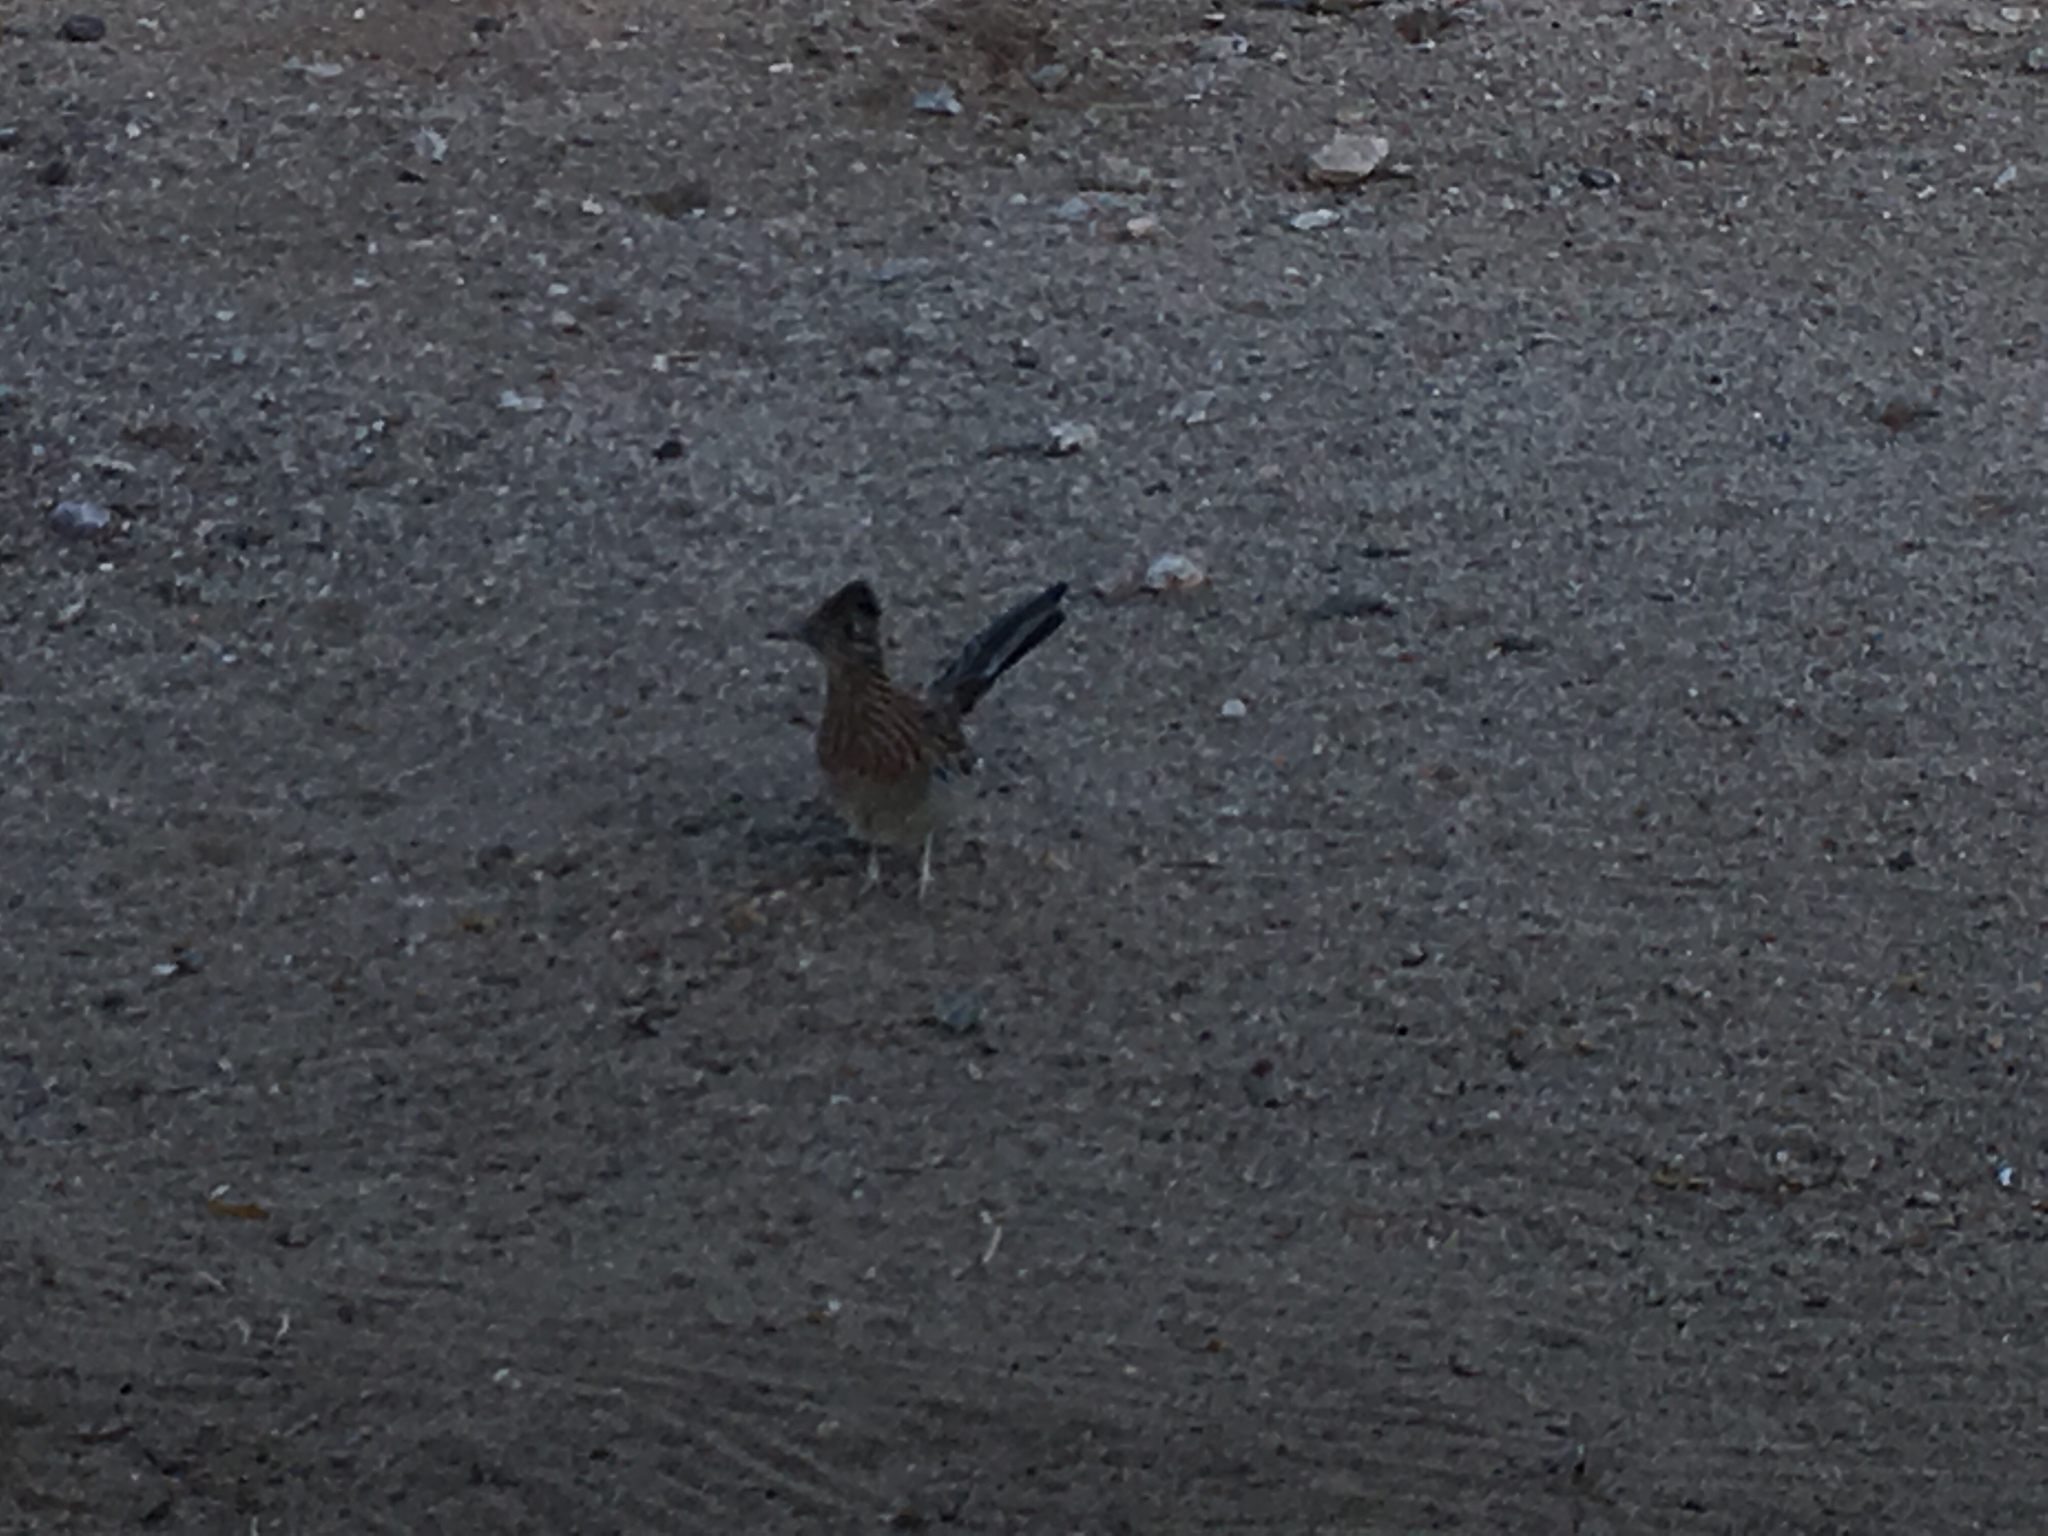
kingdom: Animalia
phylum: Chordata
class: Aves
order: Cuculiformes
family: Cuculidae
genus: Geococcyx
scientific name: Geococcyx californianus
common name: Greater roadrunner
